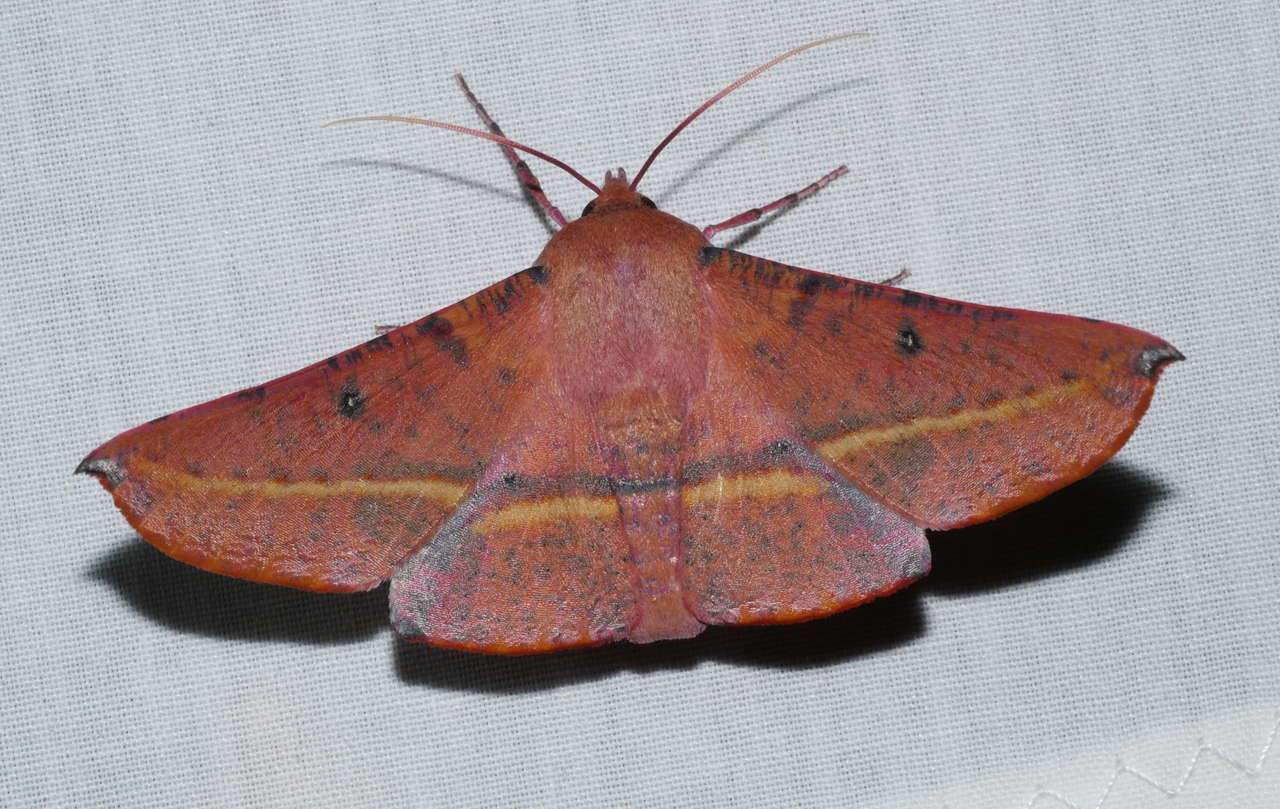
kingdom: Animalia
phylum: Arthropoda
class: Insecta
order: Lepidoptera
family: Geometridae
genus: Oenochroma
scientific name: Oenochroma vinaria
